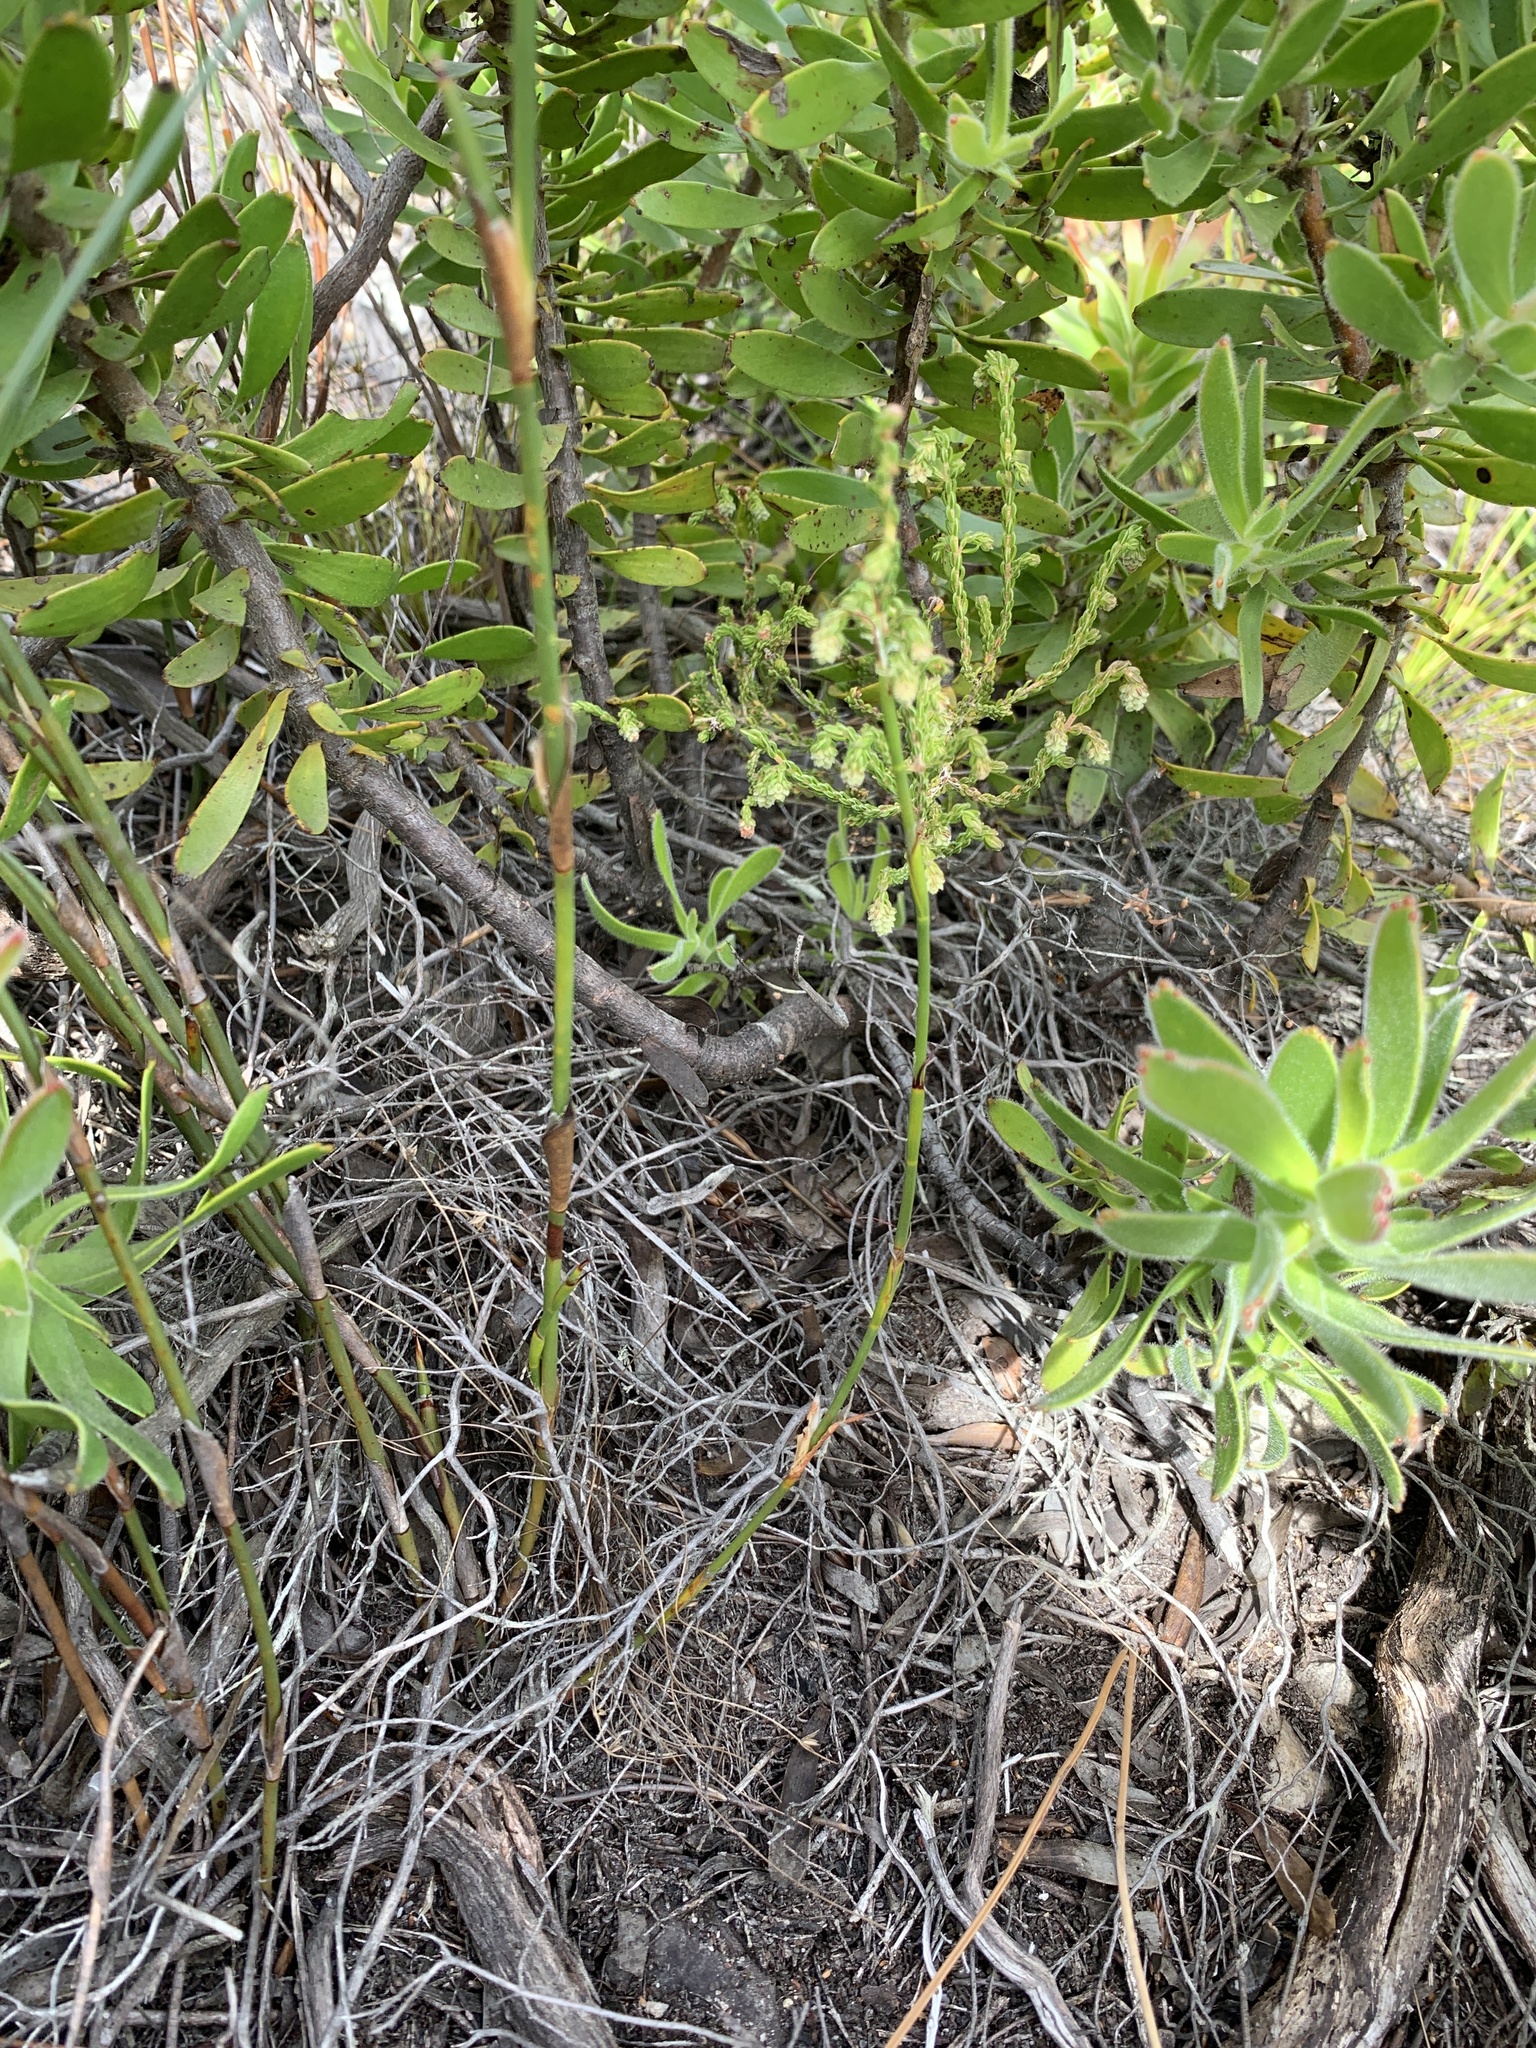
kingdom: Plantae
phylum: Tracheophyta
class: Magnoliopsida
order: Proteales
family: Proteaceae
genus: Mimetes
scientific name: Mimetes cucullatus
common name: Common pagoda
